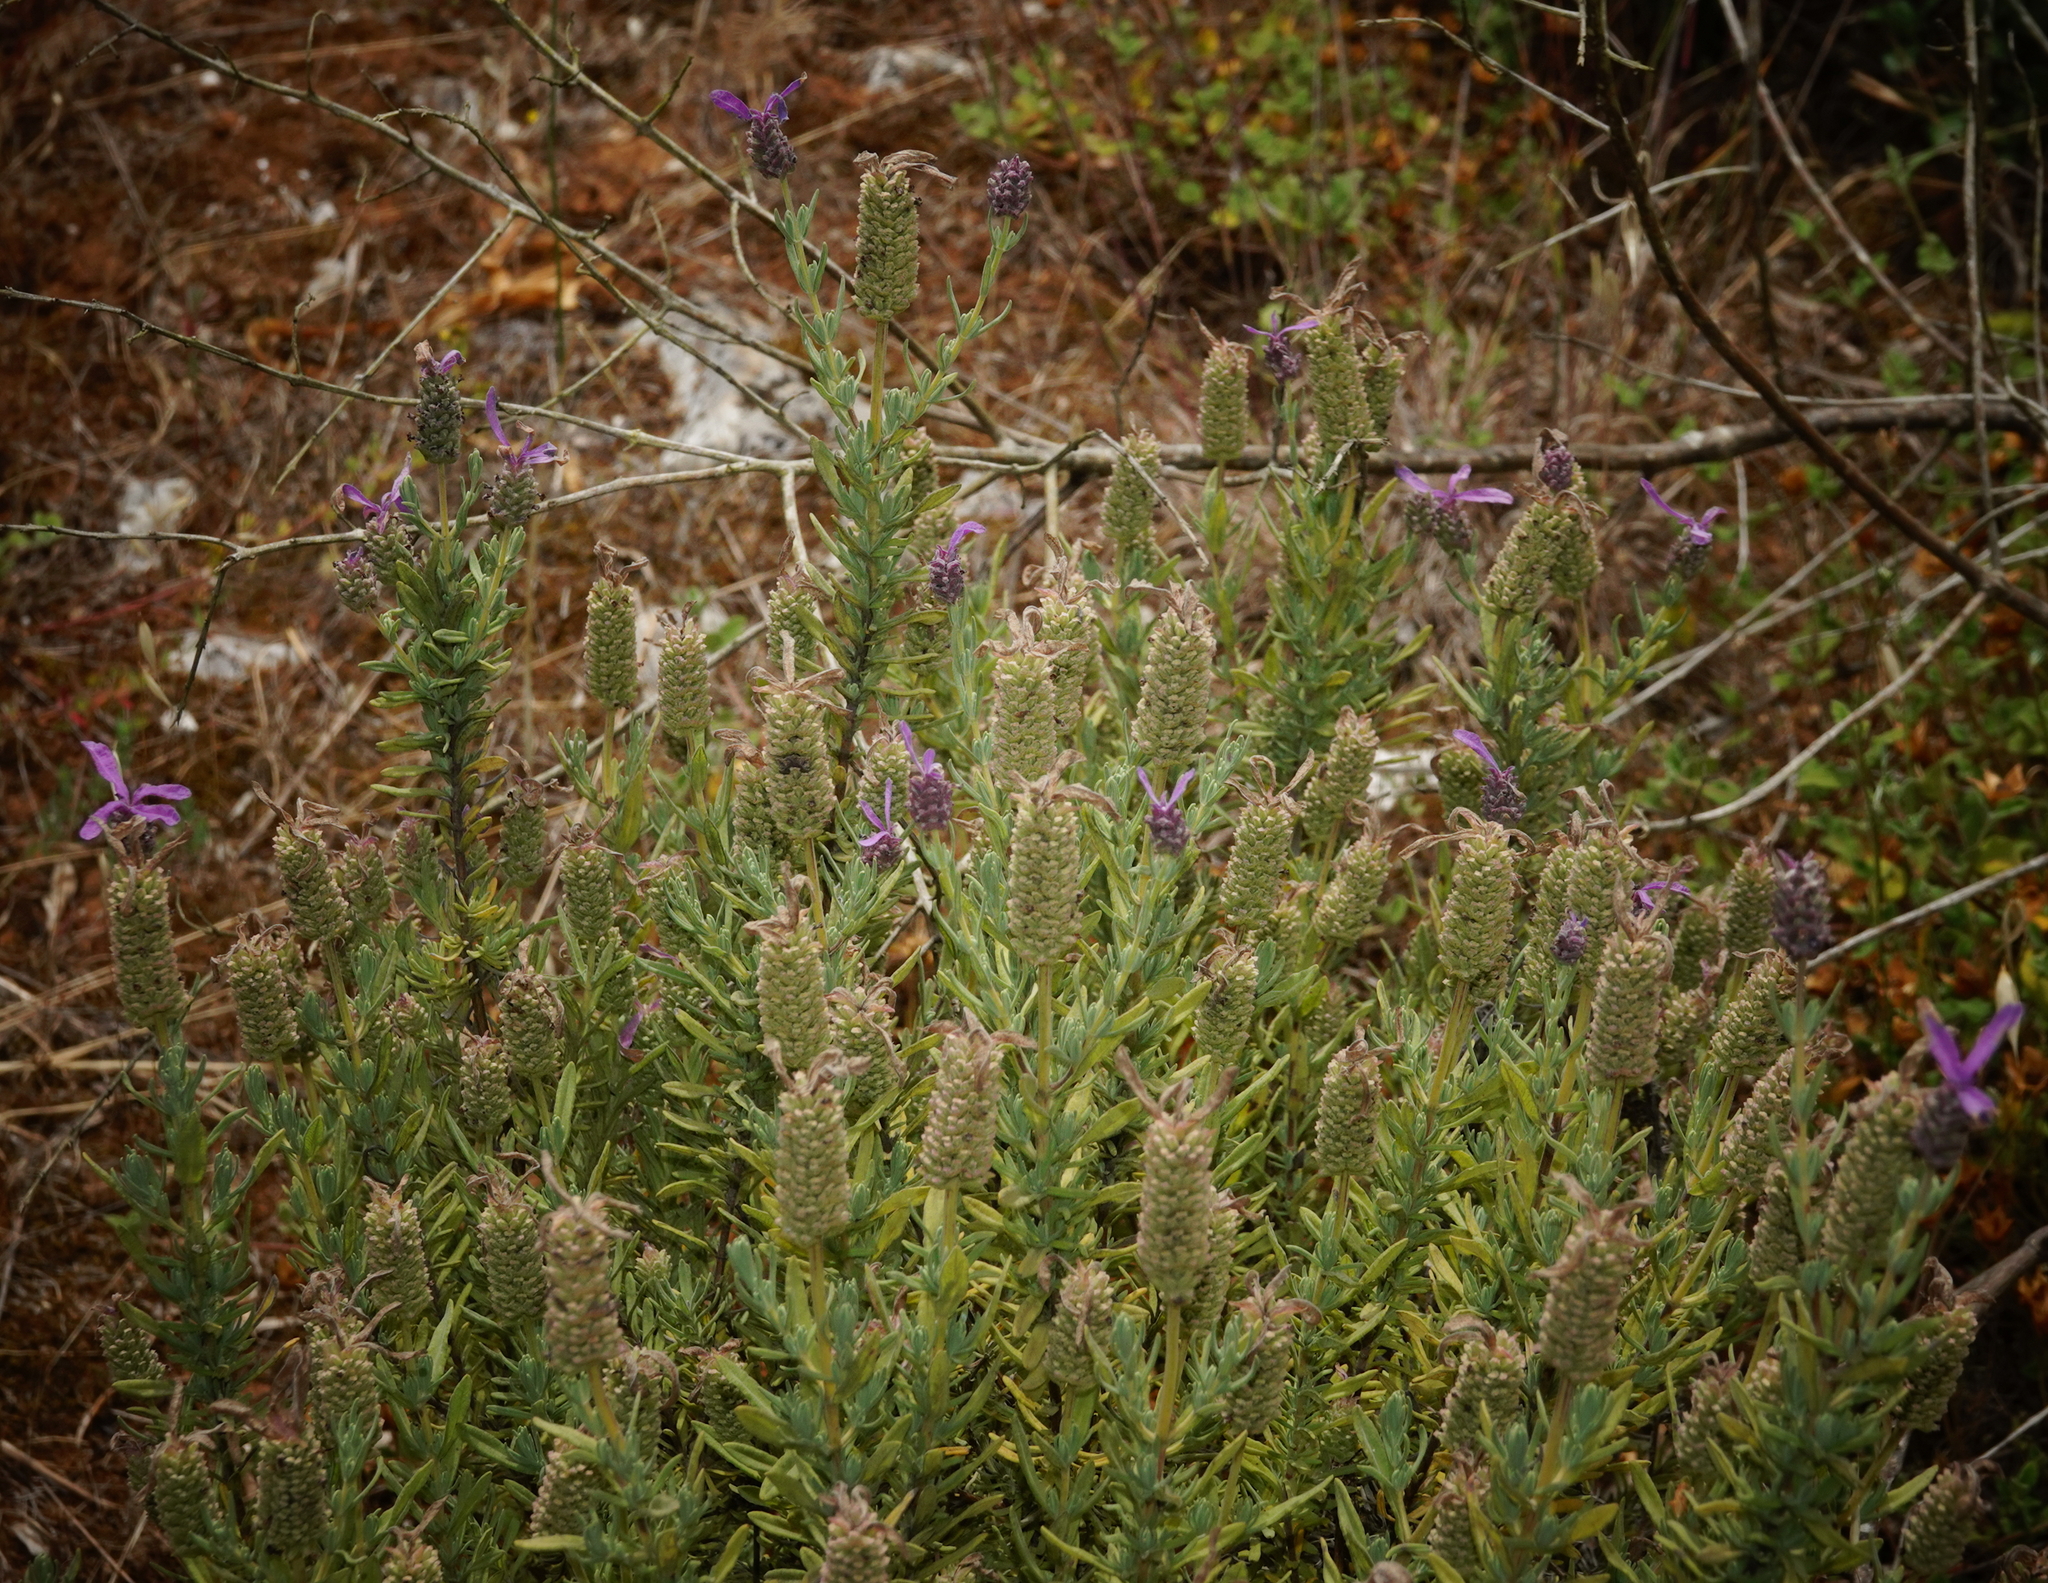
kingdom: Plantae
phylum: Tracheophyta
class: Magnoliopsida
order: Lamiales
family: Lamiaceae
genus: Lavandula
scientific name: Lavandula stoechas
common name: French lavender
